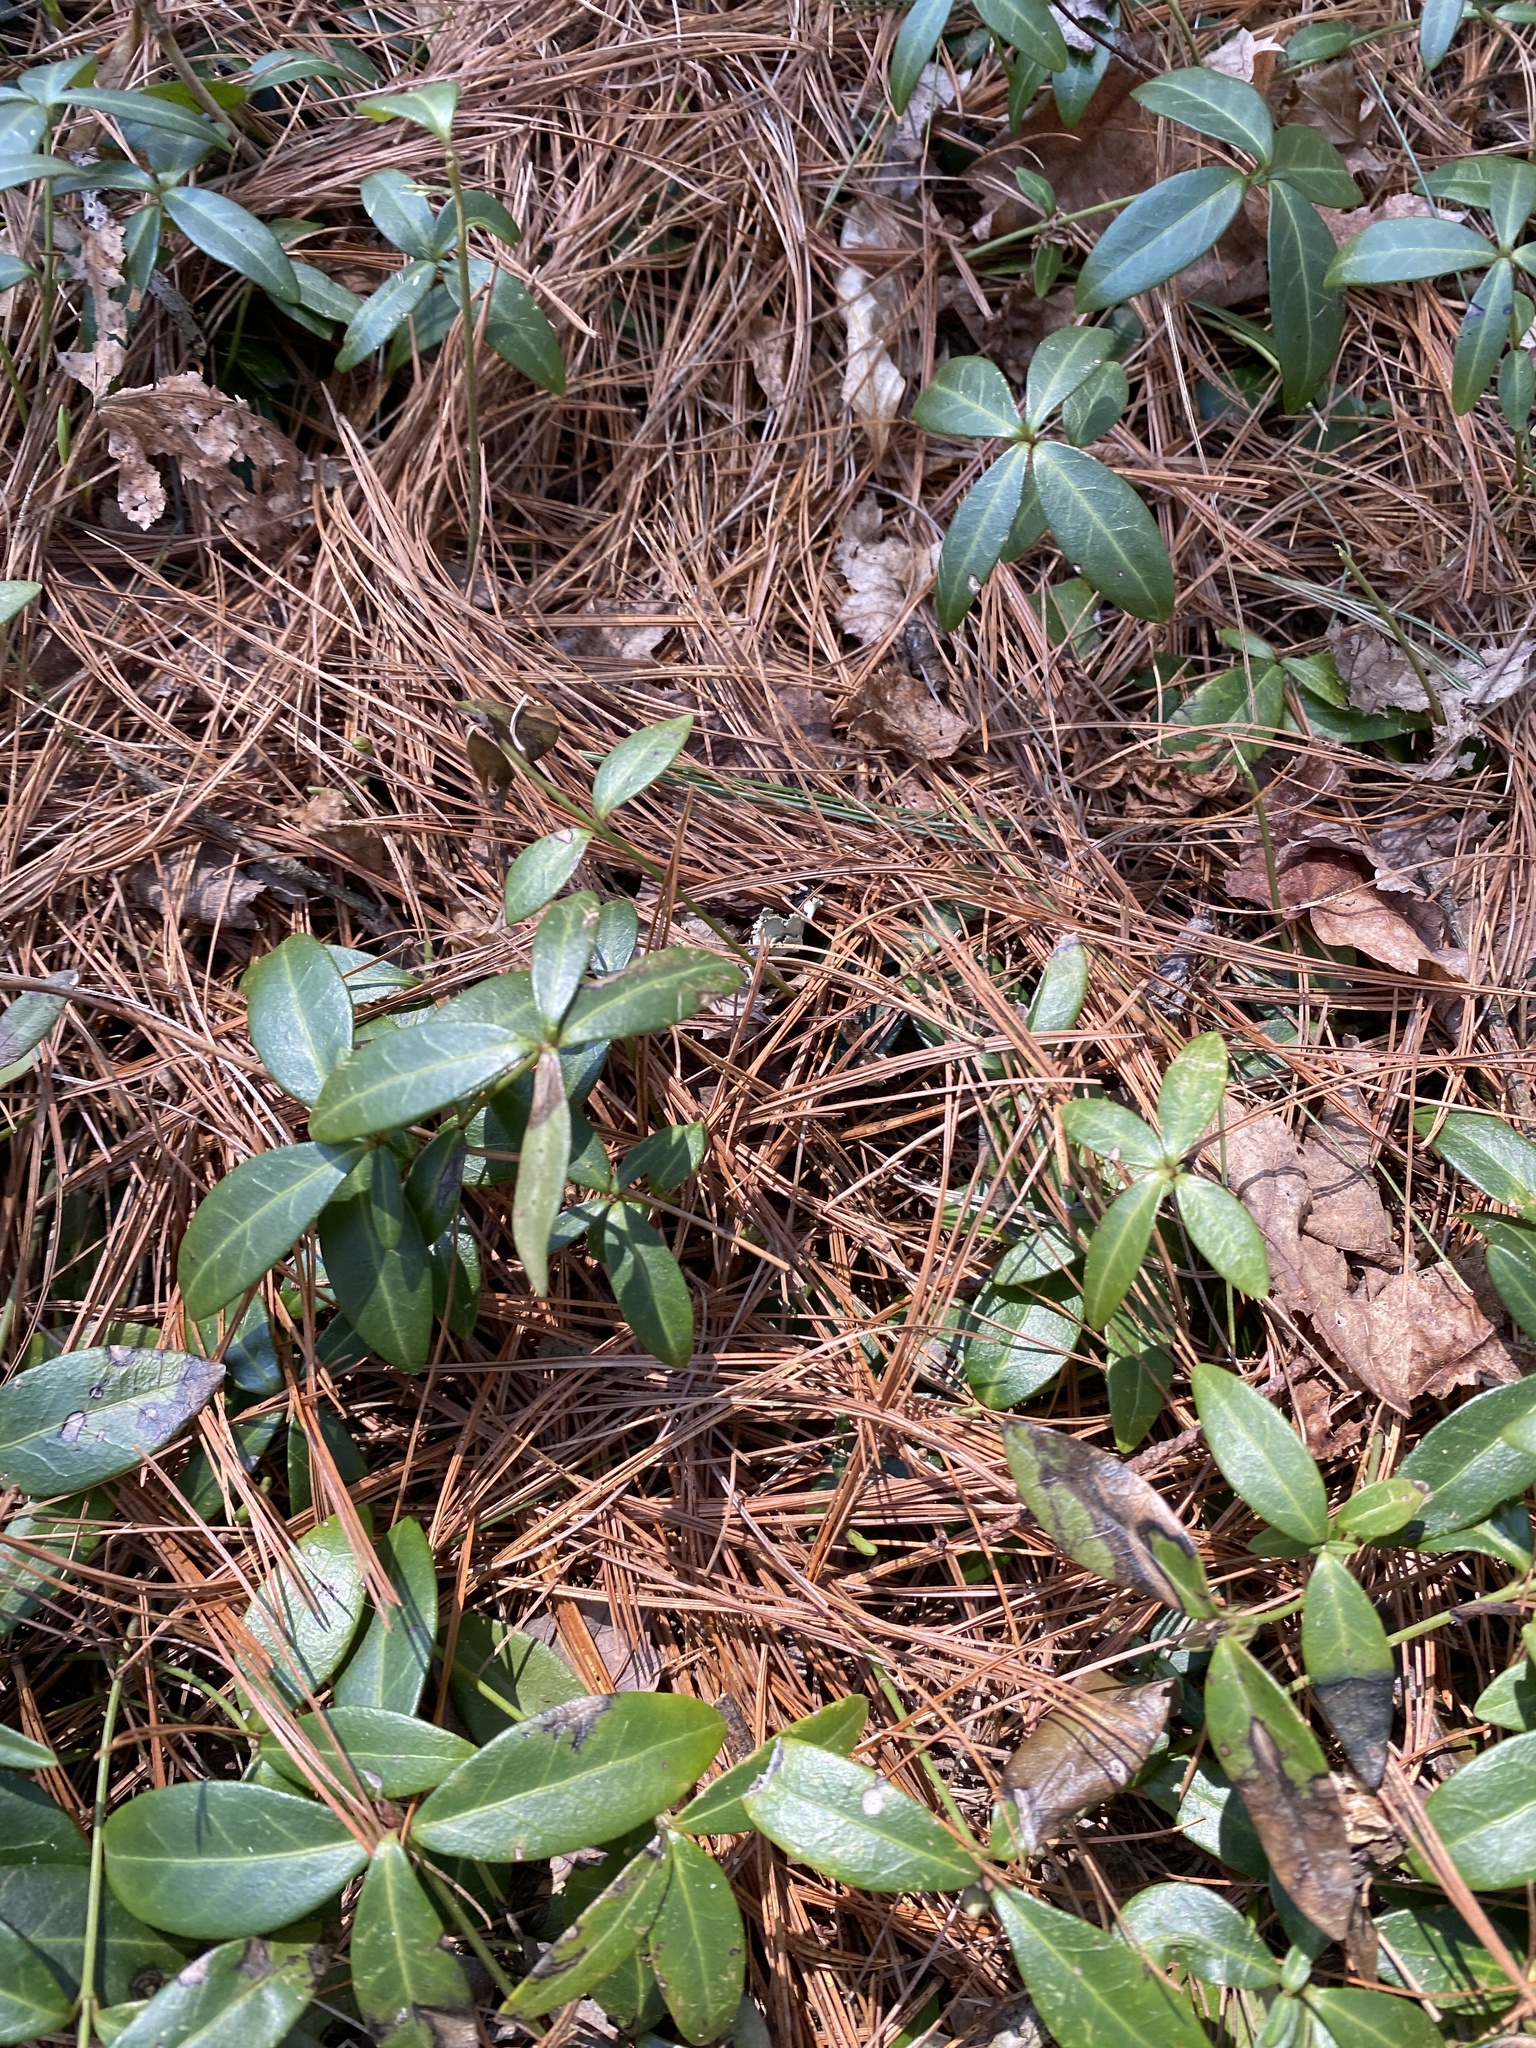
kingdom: Plantae
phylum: Tracheophyta
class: Magnoliopsida
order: Gentianales
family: Apocynaceae
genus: Vinca
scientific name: Vinca minor
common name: Lesser periwinkle
